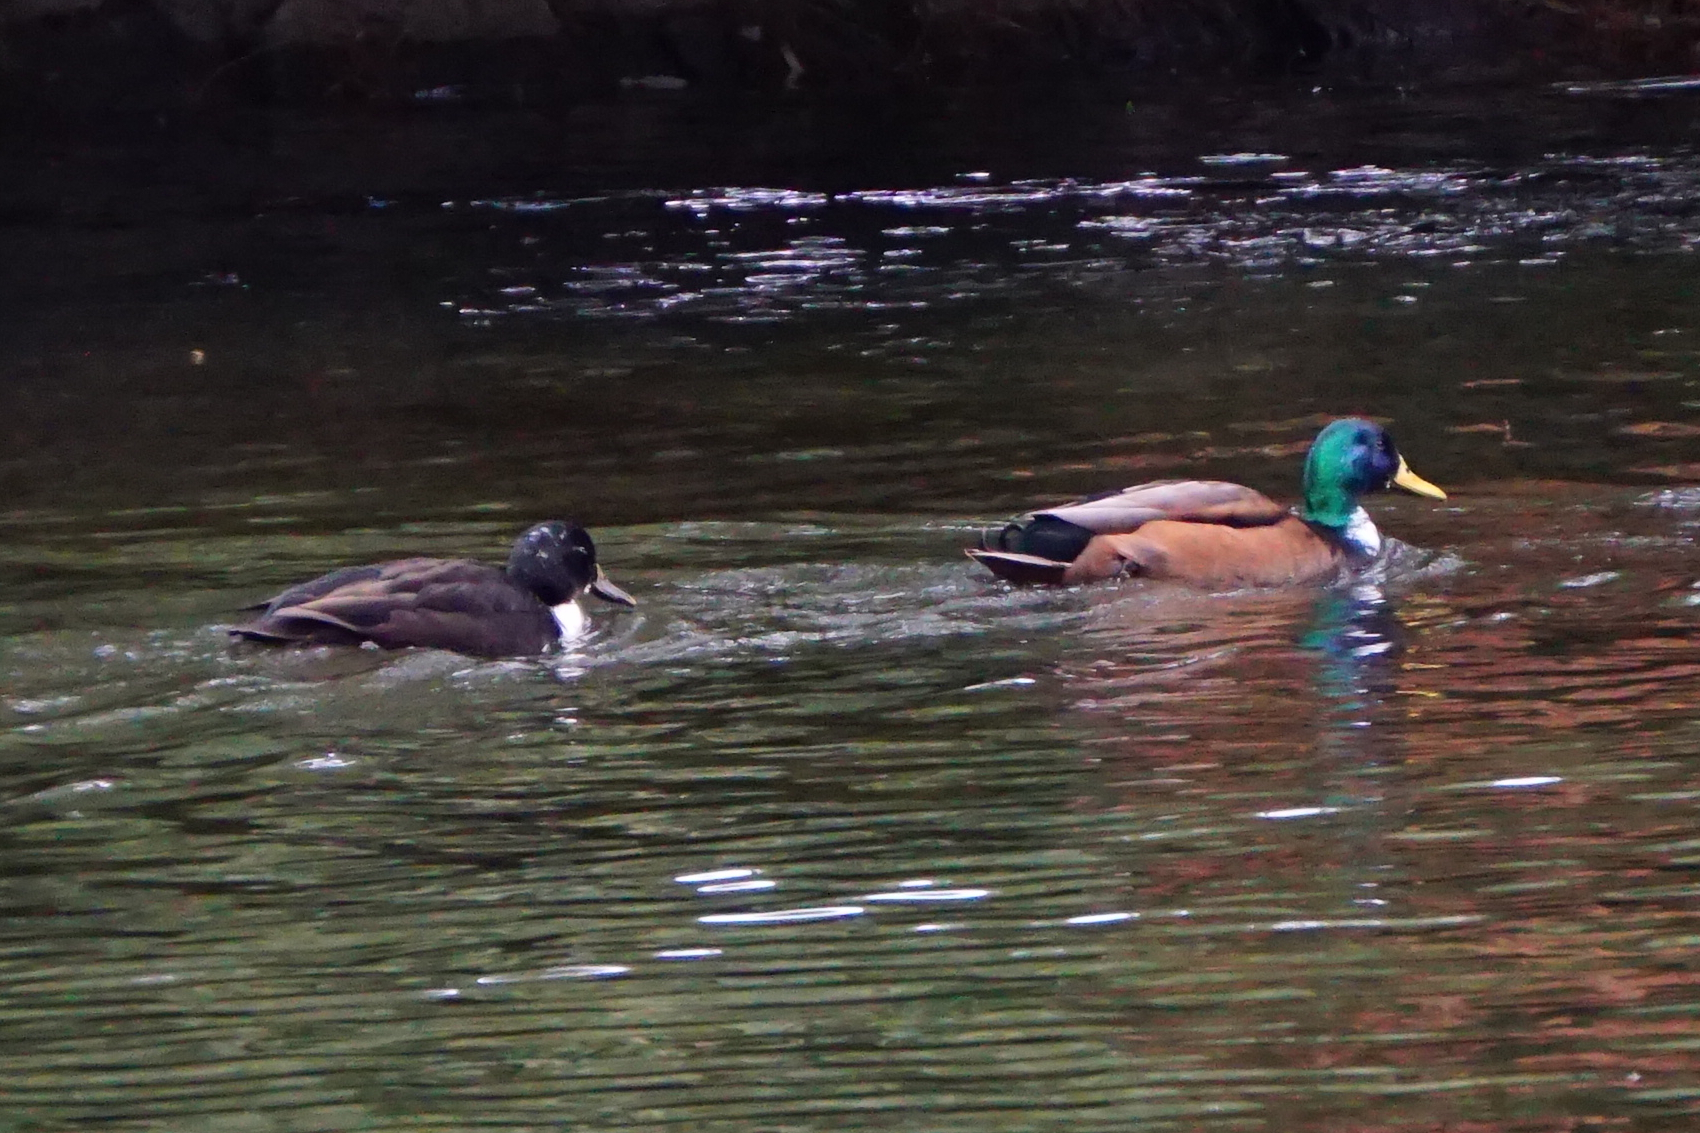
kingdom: Animalia
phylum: Chordata
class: Aves
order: Anseriformes
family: Anatidae
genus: Anas
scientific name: Anas platyrhynchos
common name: Mallard
